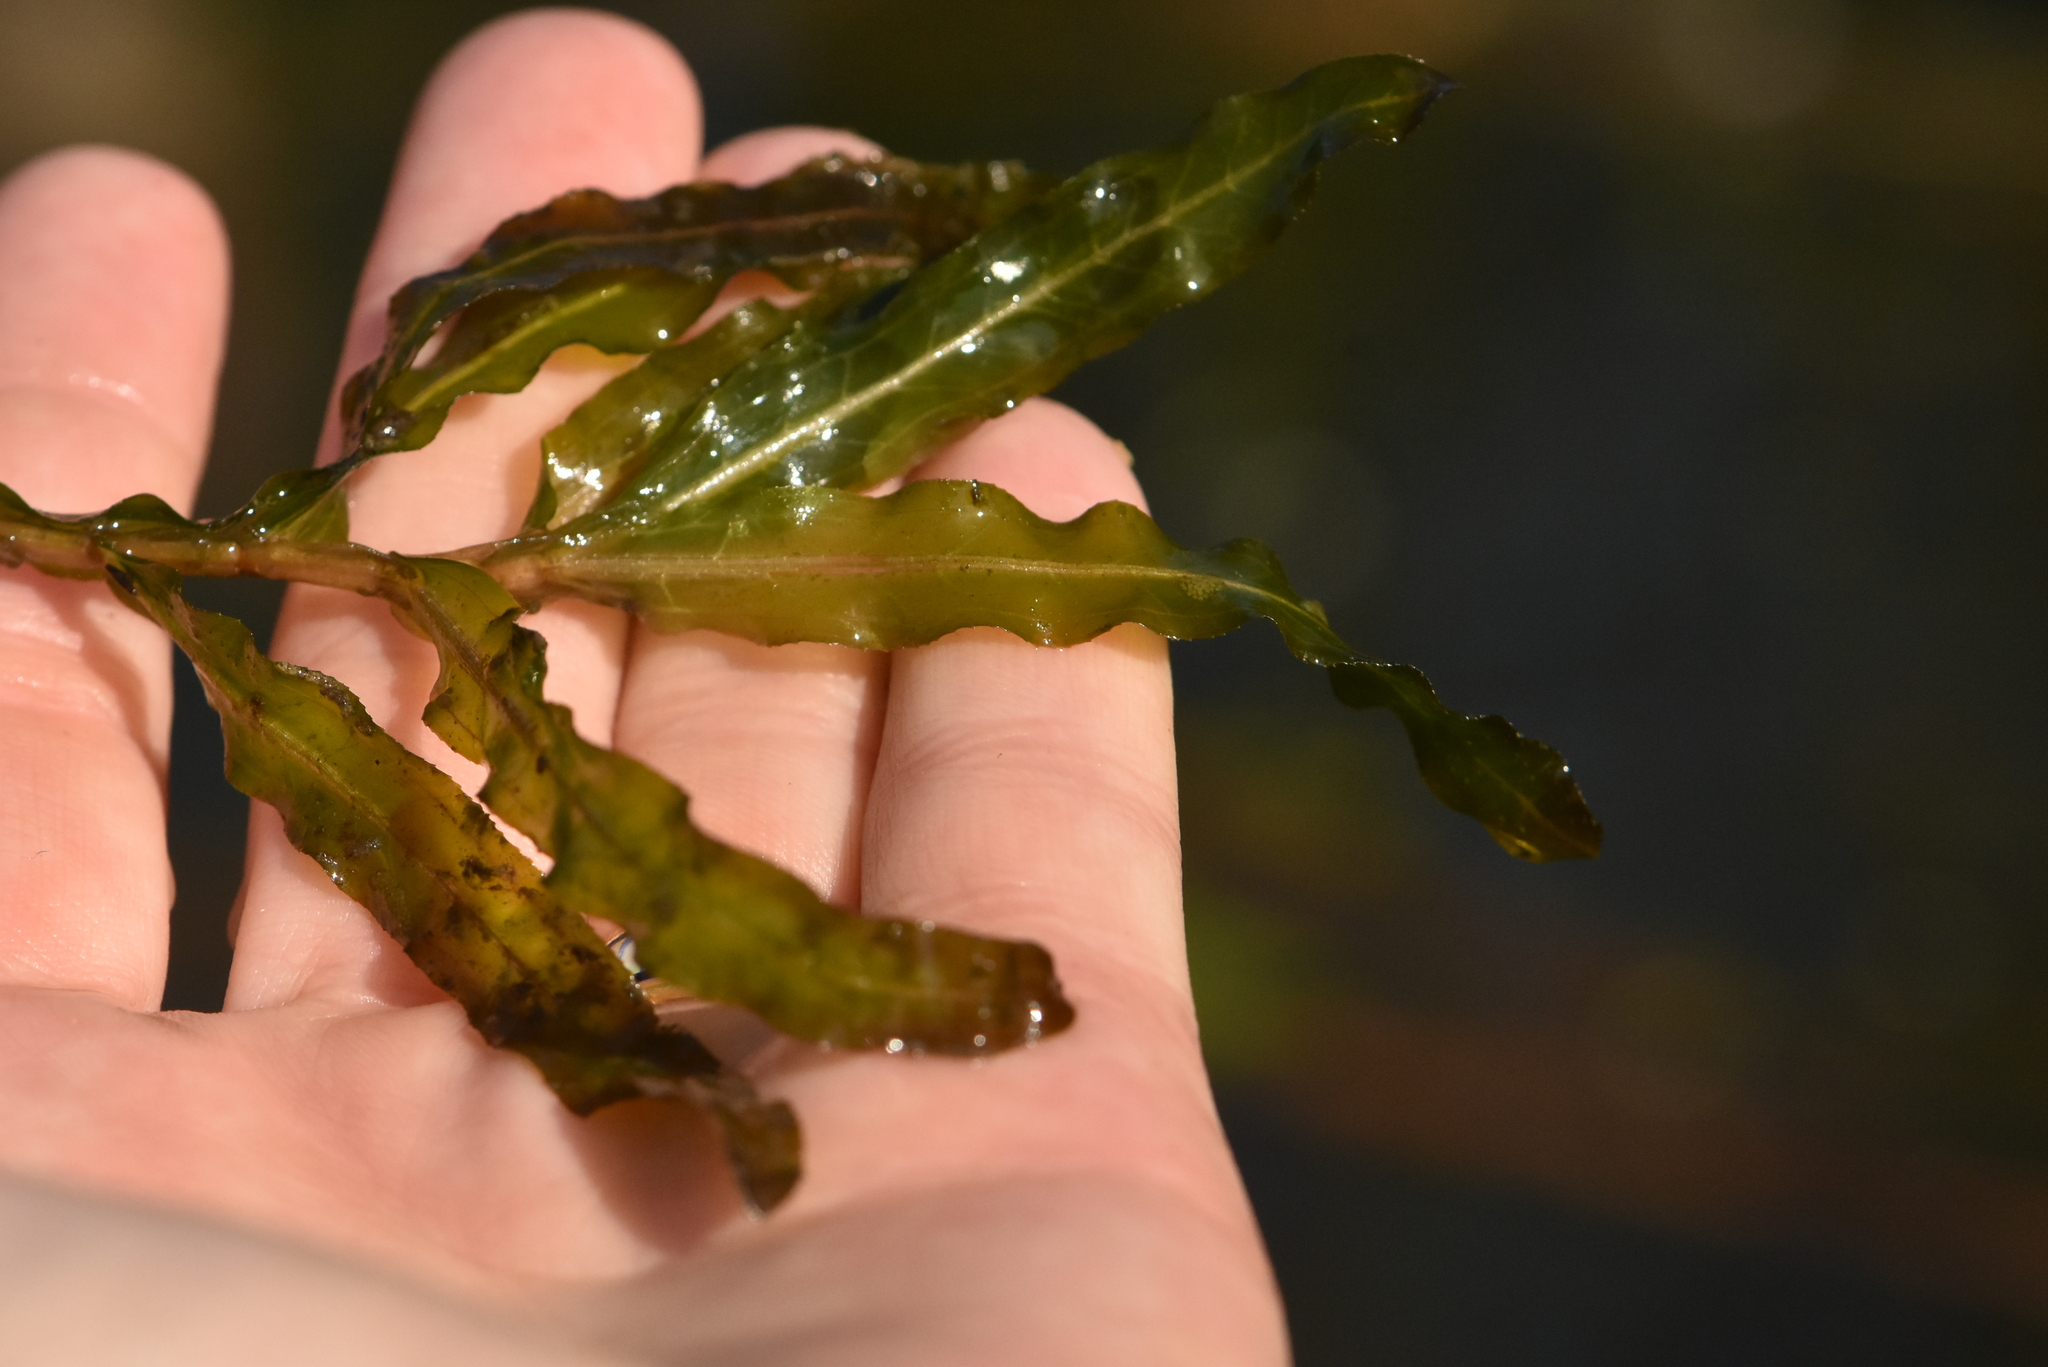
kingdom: Plantae
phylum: Tracheophyta
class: Liliopsida
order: Alismatales
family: Potamogetonaceae
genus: Potamogeton
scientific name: Potamogeton crispus
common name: Curled pondweed
